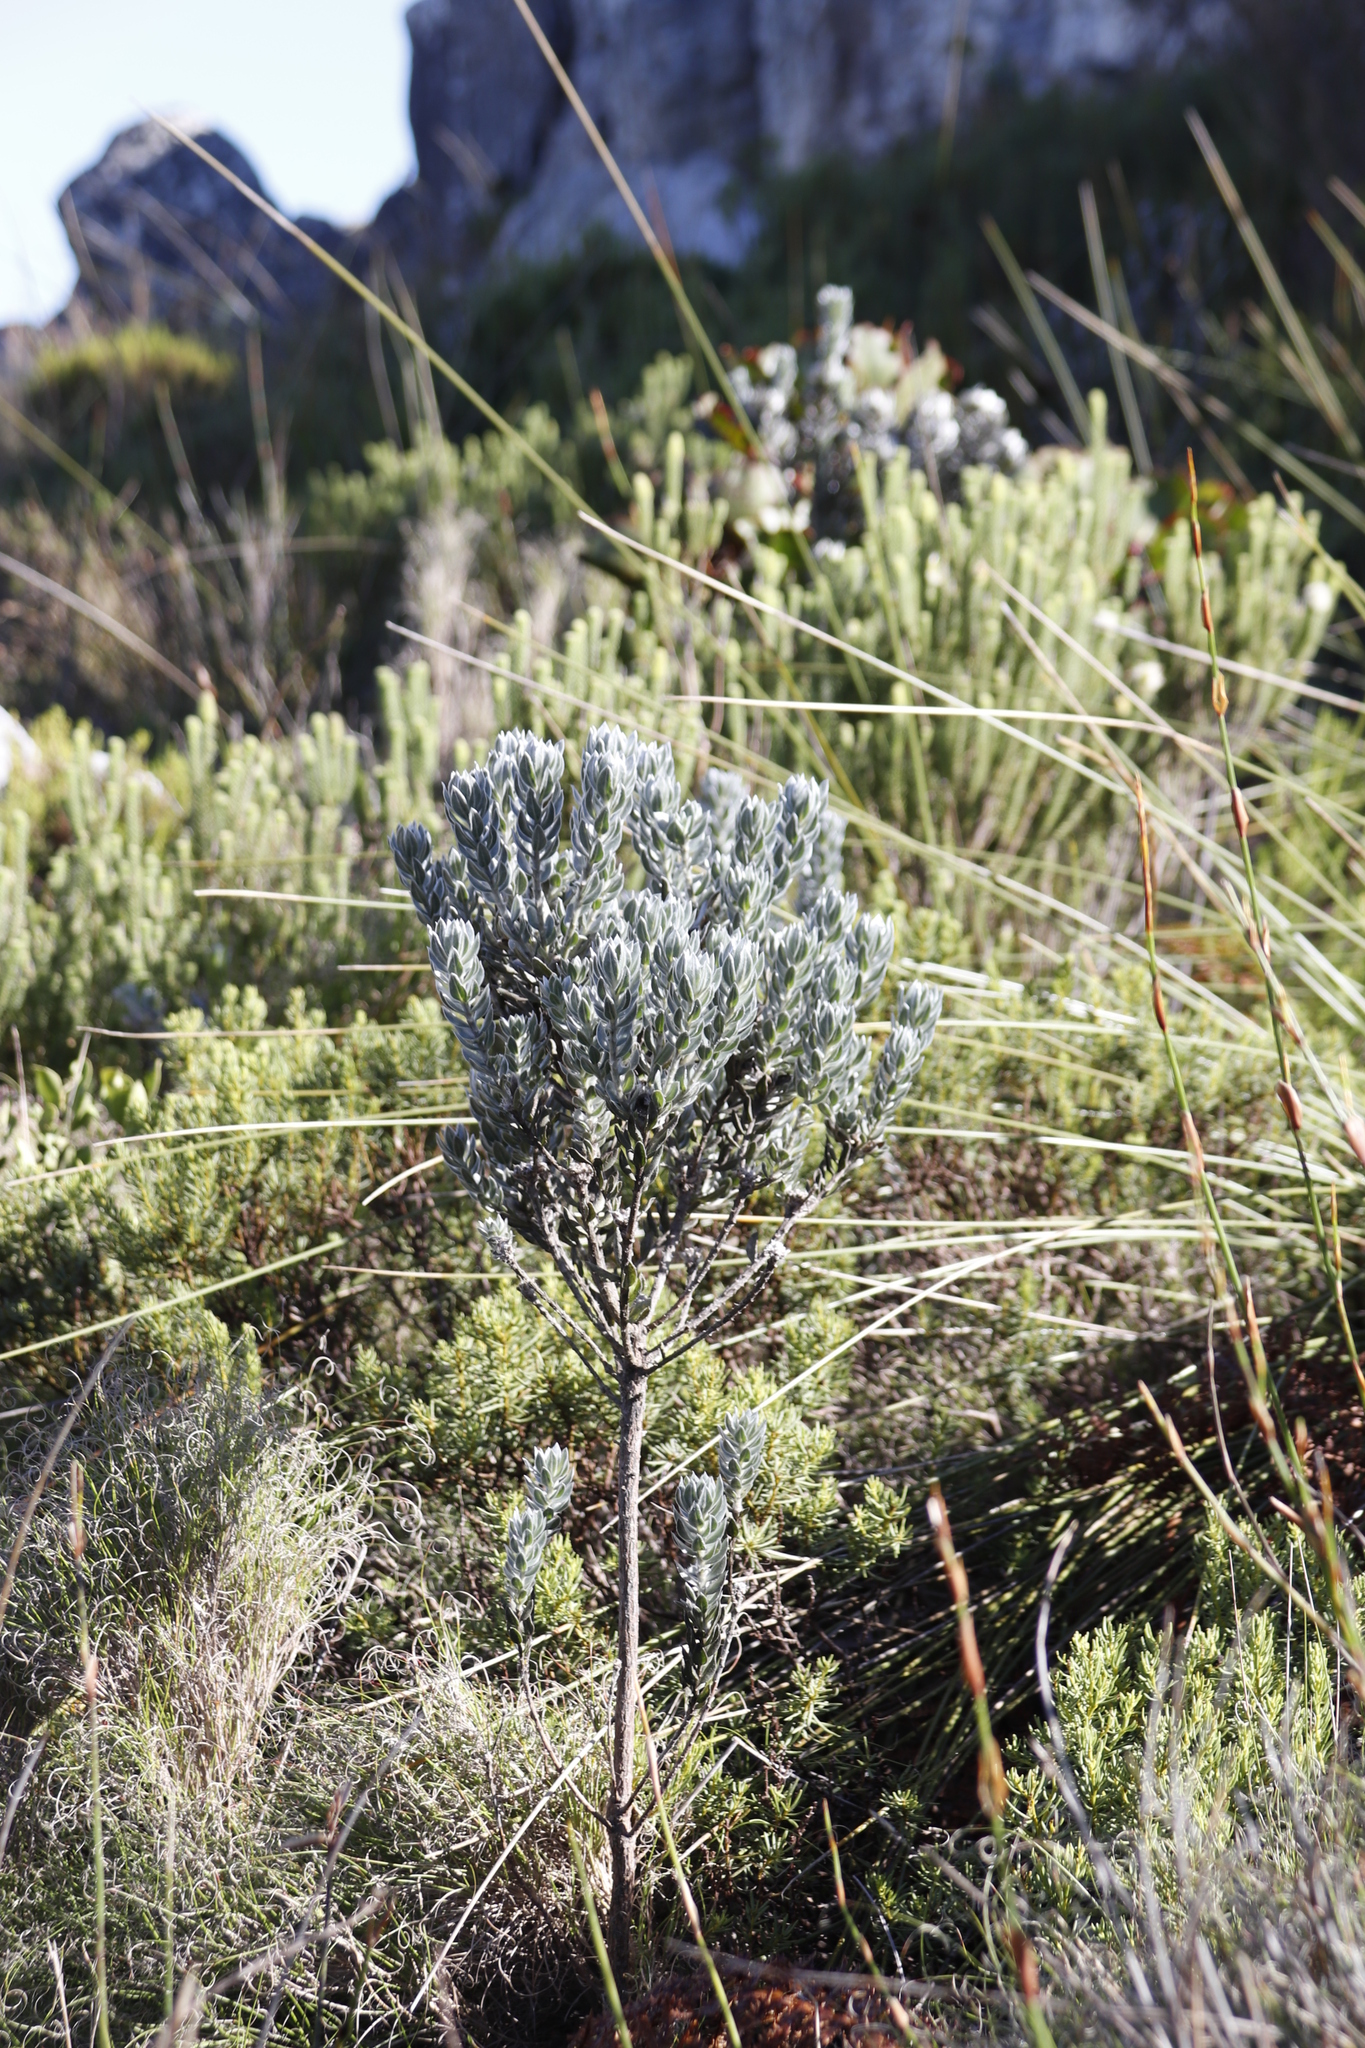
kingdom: Plantae
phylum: Tracheophyta
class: Magnoliopsida
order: Fabales
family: Fabaceae
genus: Xiphotheca
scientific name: Xiphotheca fruticosa
